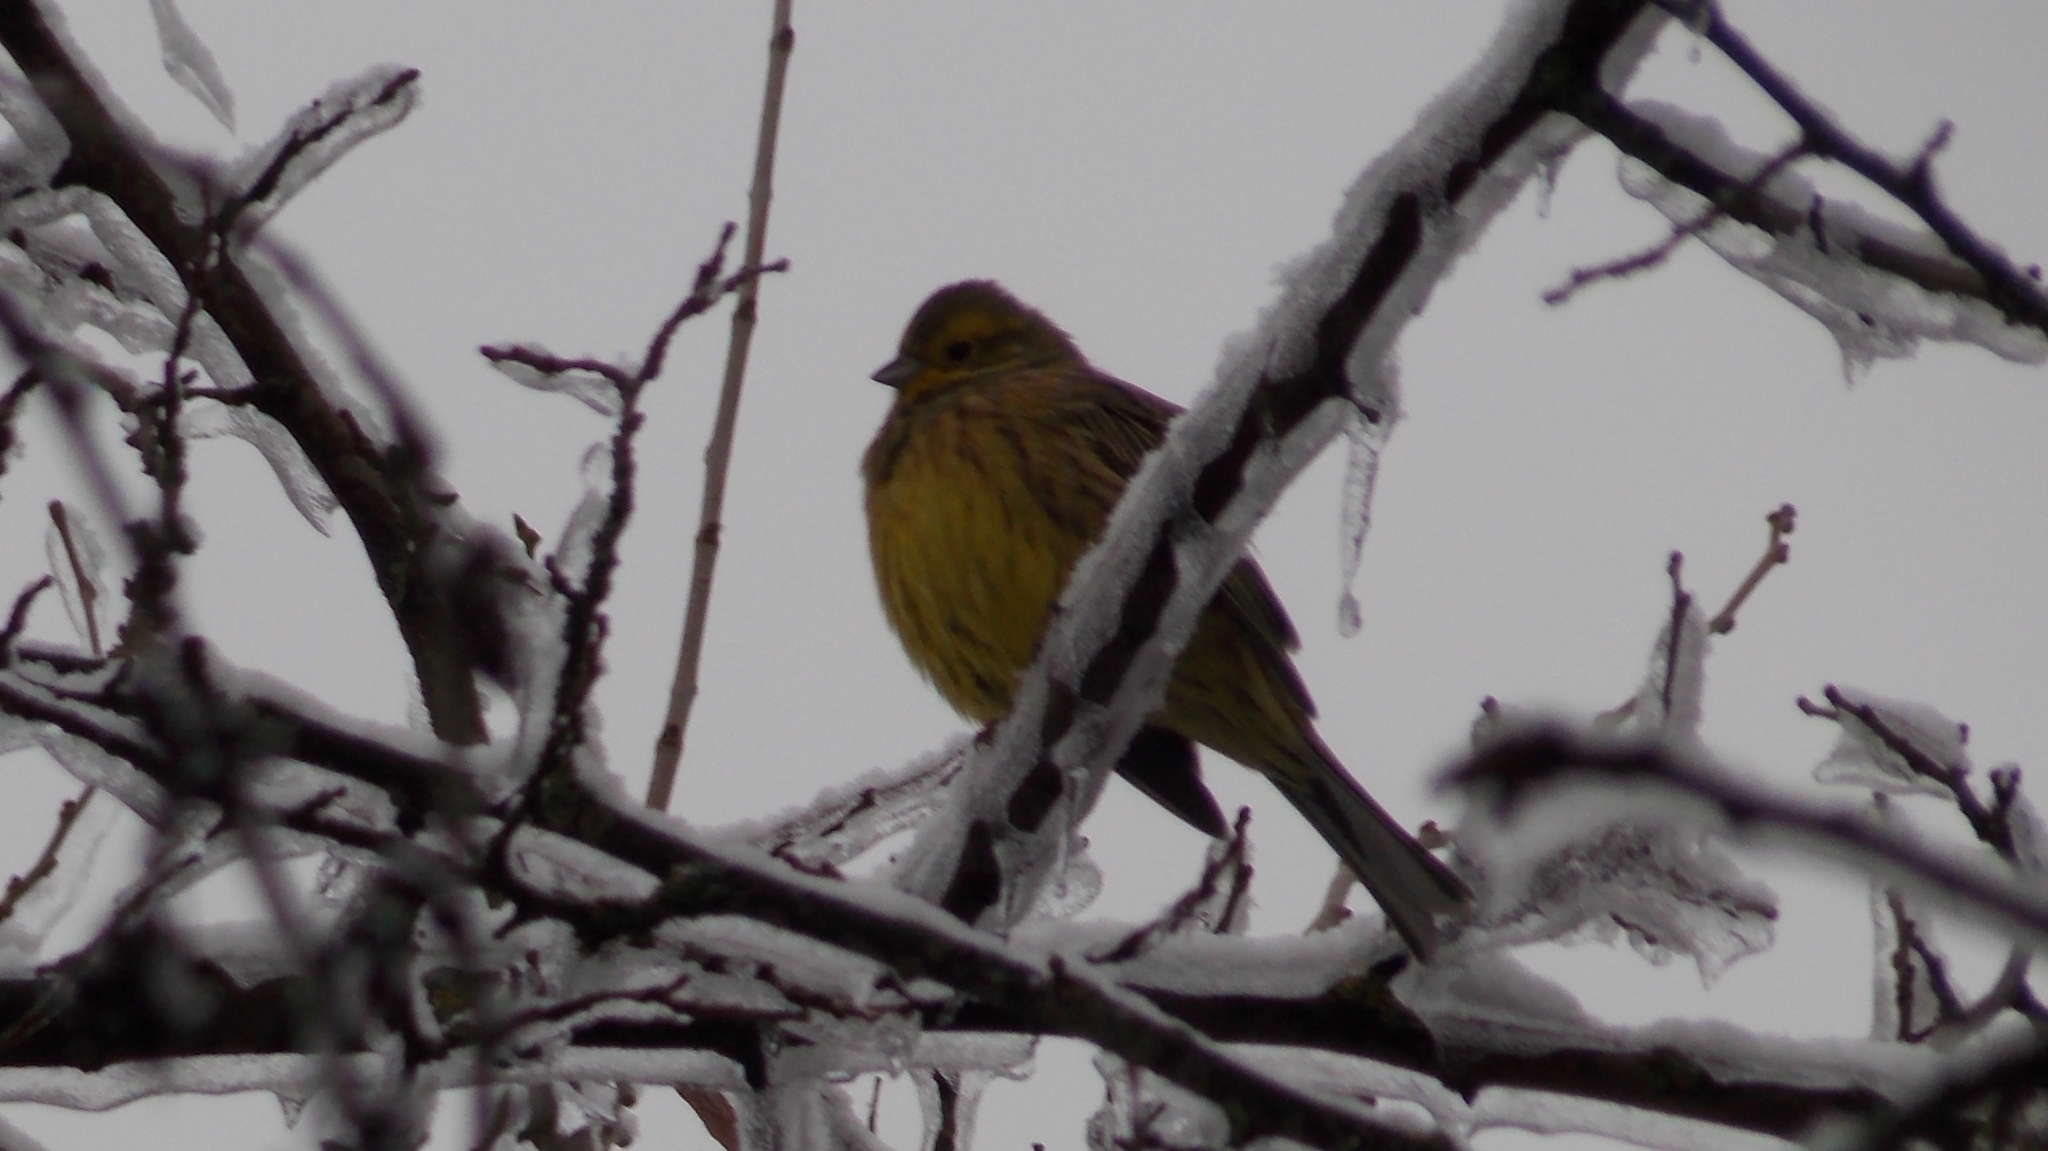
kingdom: Animalia
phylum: Chordata
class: Aves
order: Passeriformes
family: Emberizidae
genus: Emberiza
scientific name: Emberiza citrinella
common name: Yellowhammer
